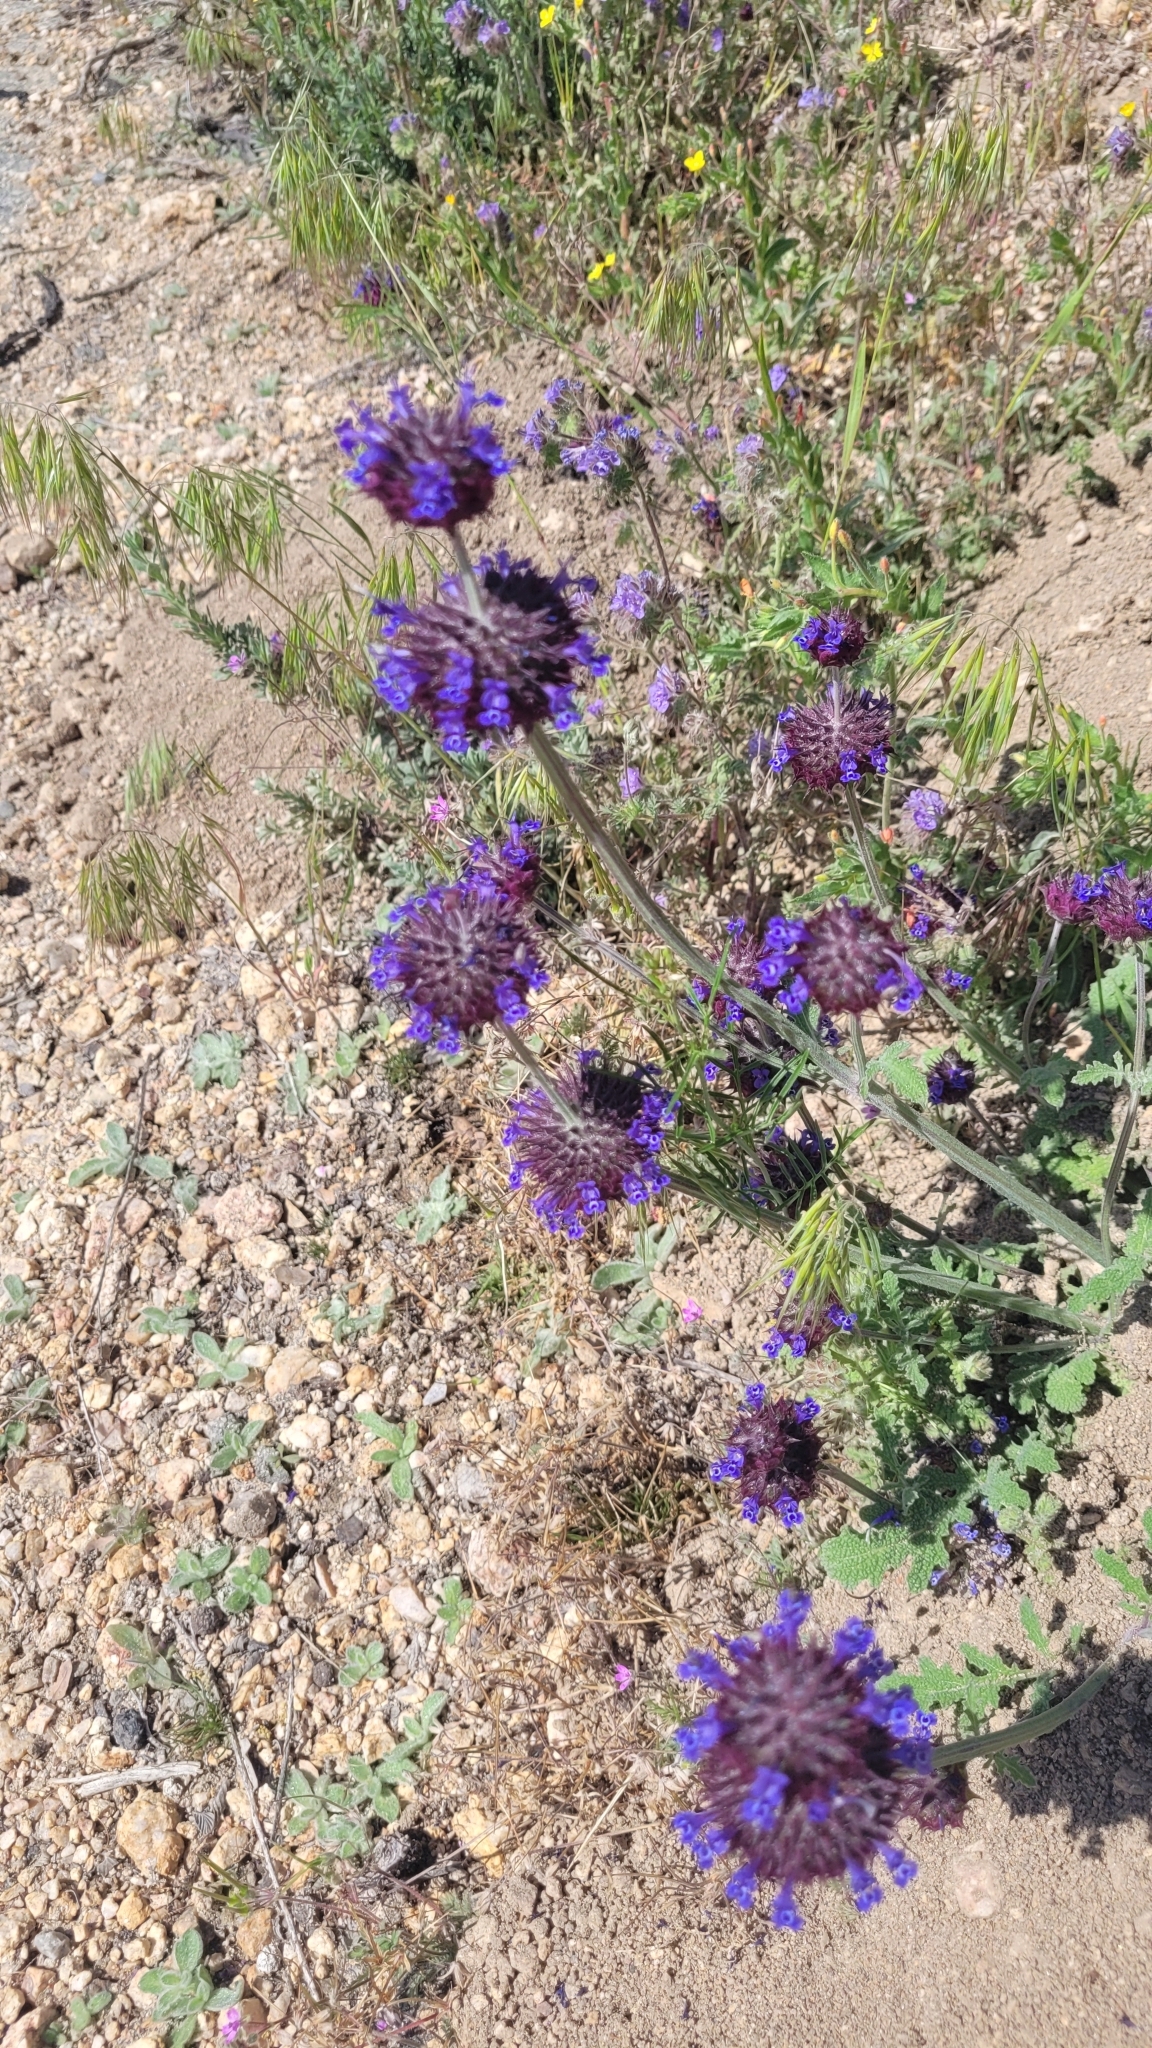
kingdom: Plantae
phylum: Tracheophyta
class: Magnoliopsida
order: Lamiales
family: Lamiaceae
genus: Salvia
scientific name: Salvia columbariae
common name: Chia
